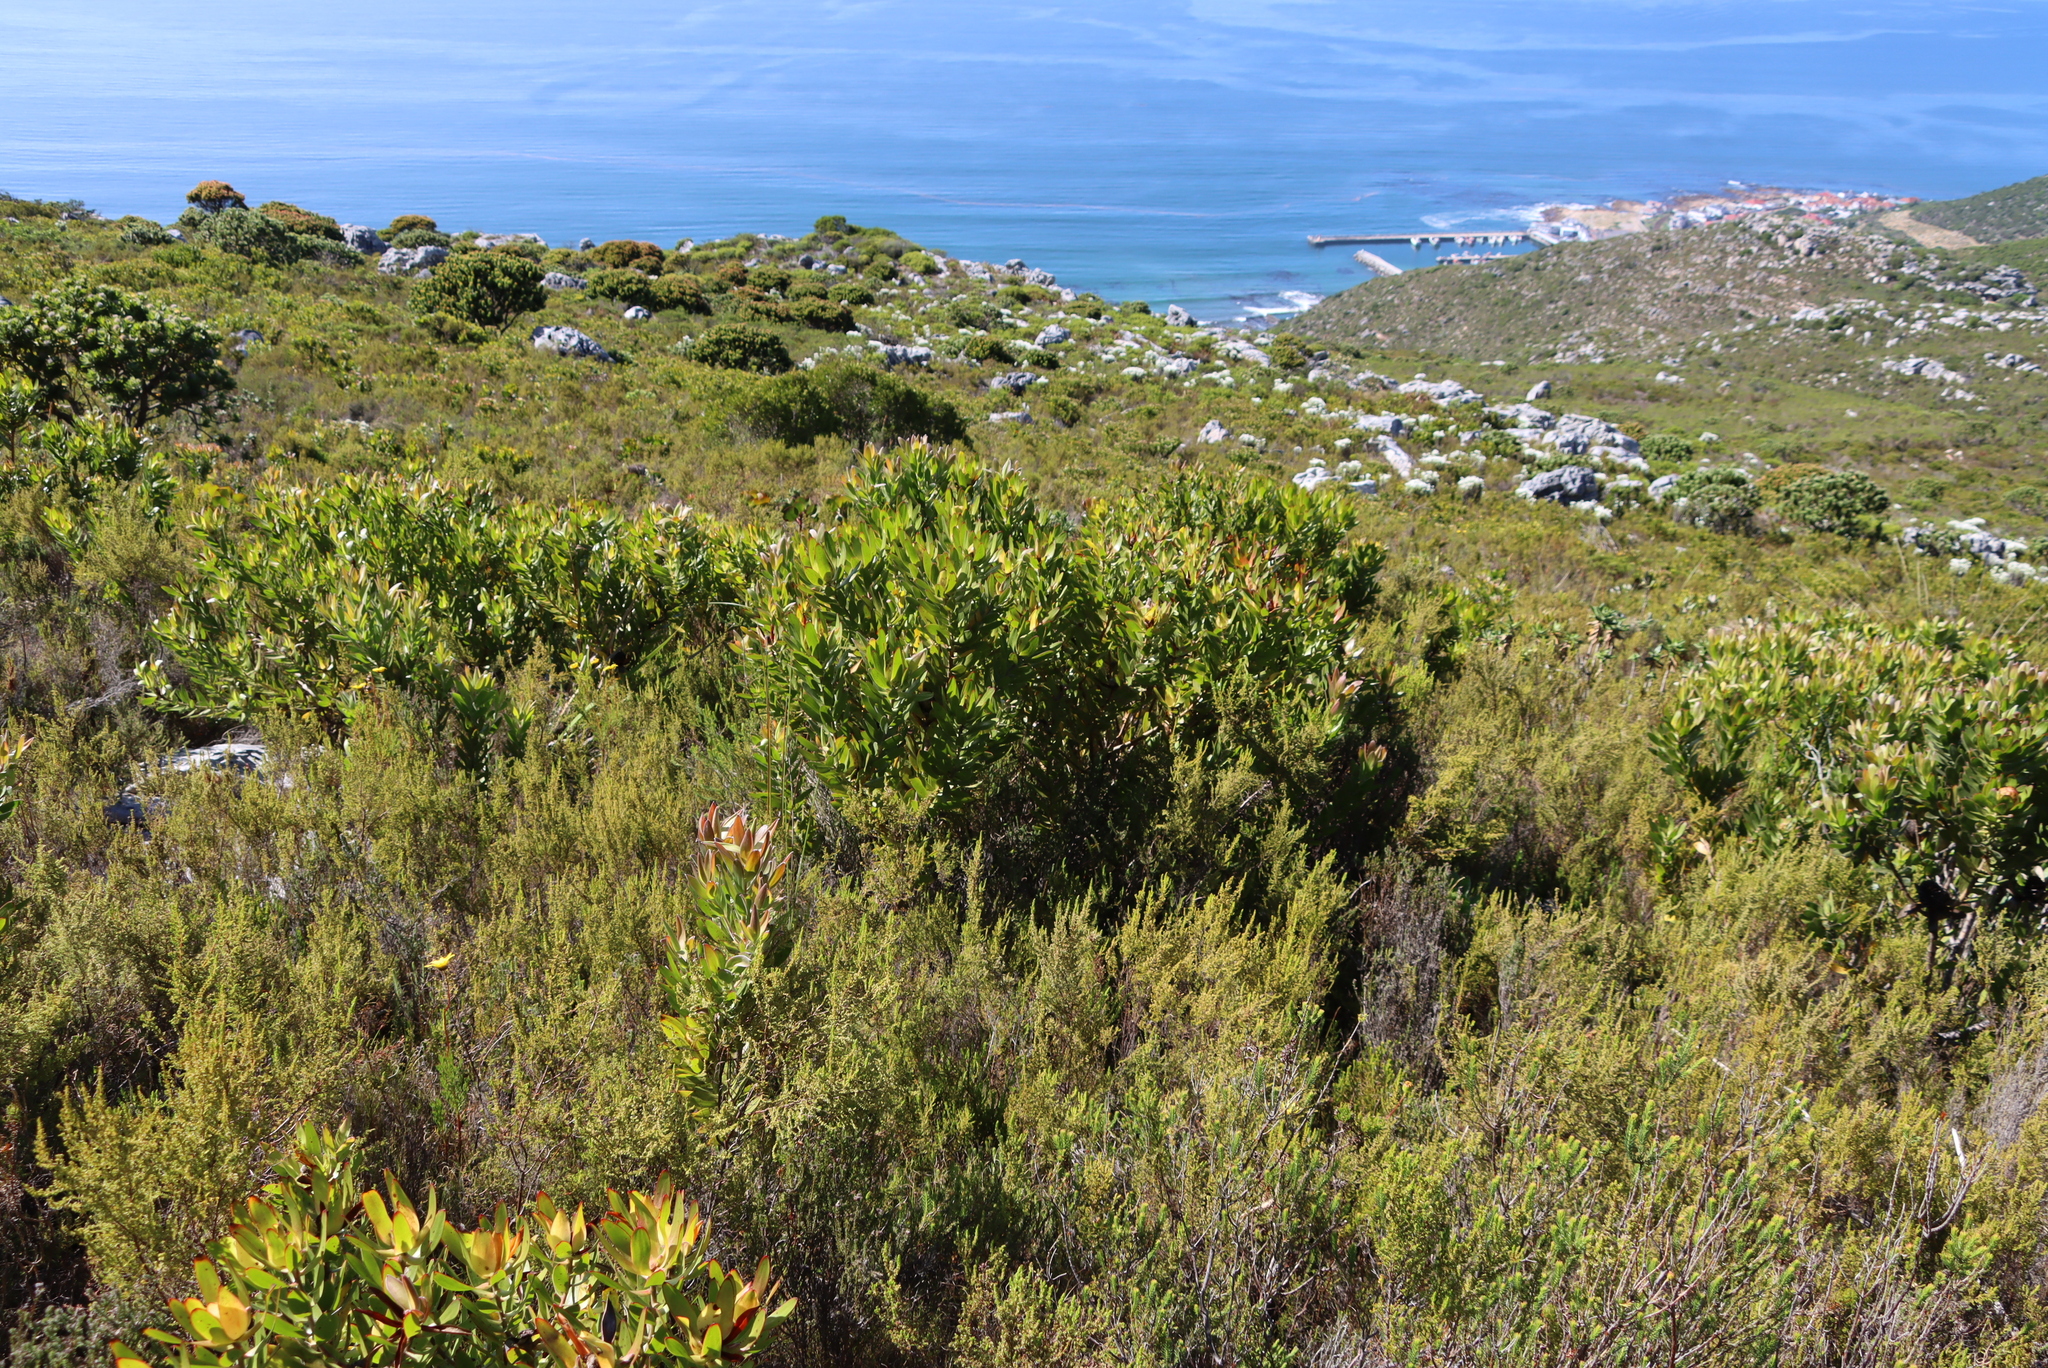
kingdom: Plantae
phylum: Tracheophyta
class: Magnoliopsida
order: Proteales
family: Proteaceae
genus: Leucadendron
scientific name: Leucadendron laureolum
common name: Golden sunshinebush
